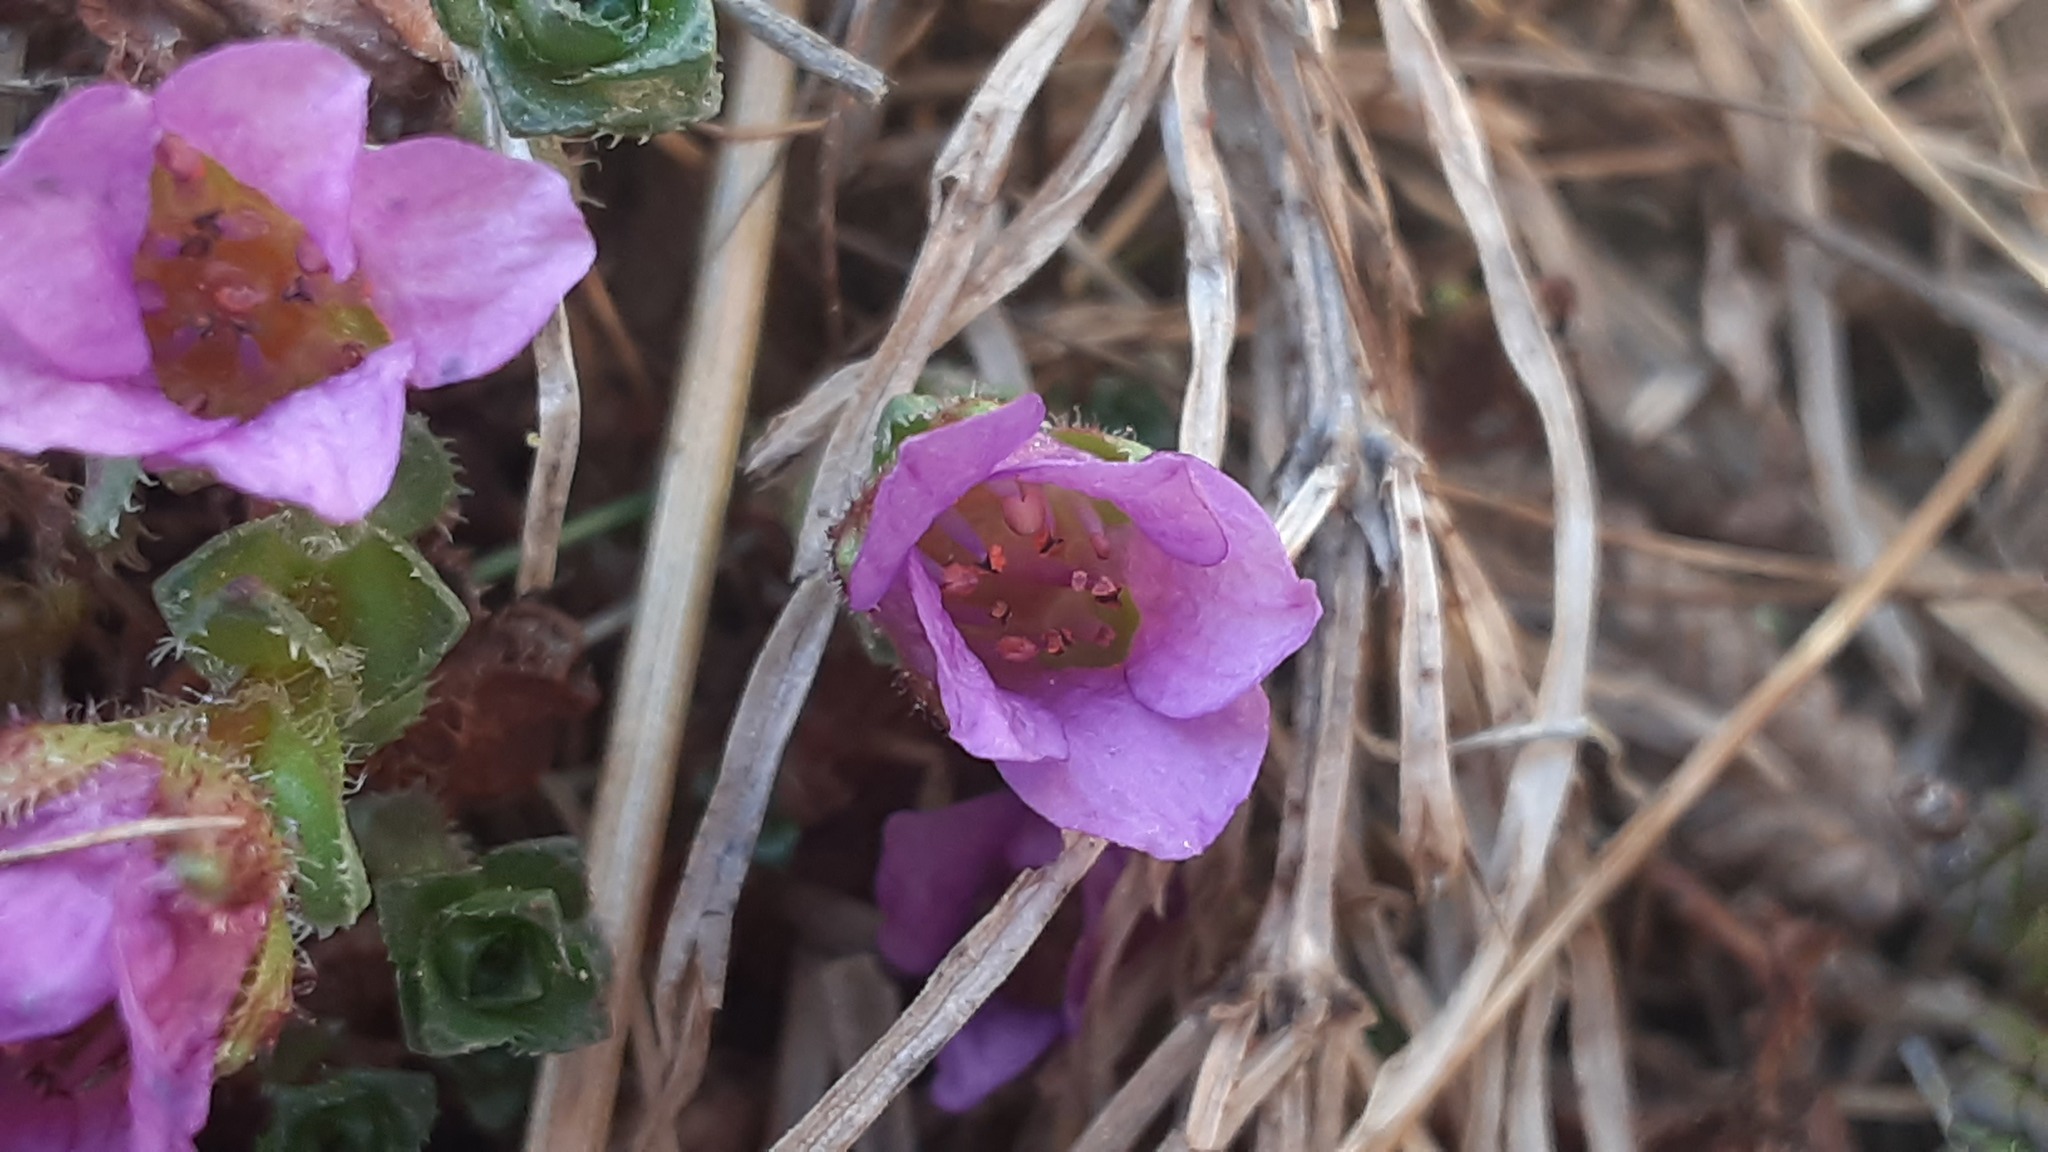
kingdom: Plantae
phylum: Tracheophyta
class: Magnoliopsida
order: Saxifragales
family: Saxifragaceae
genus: Saxifraga
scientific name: Saxifraga oppositifolia
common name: Purple saxifrage
